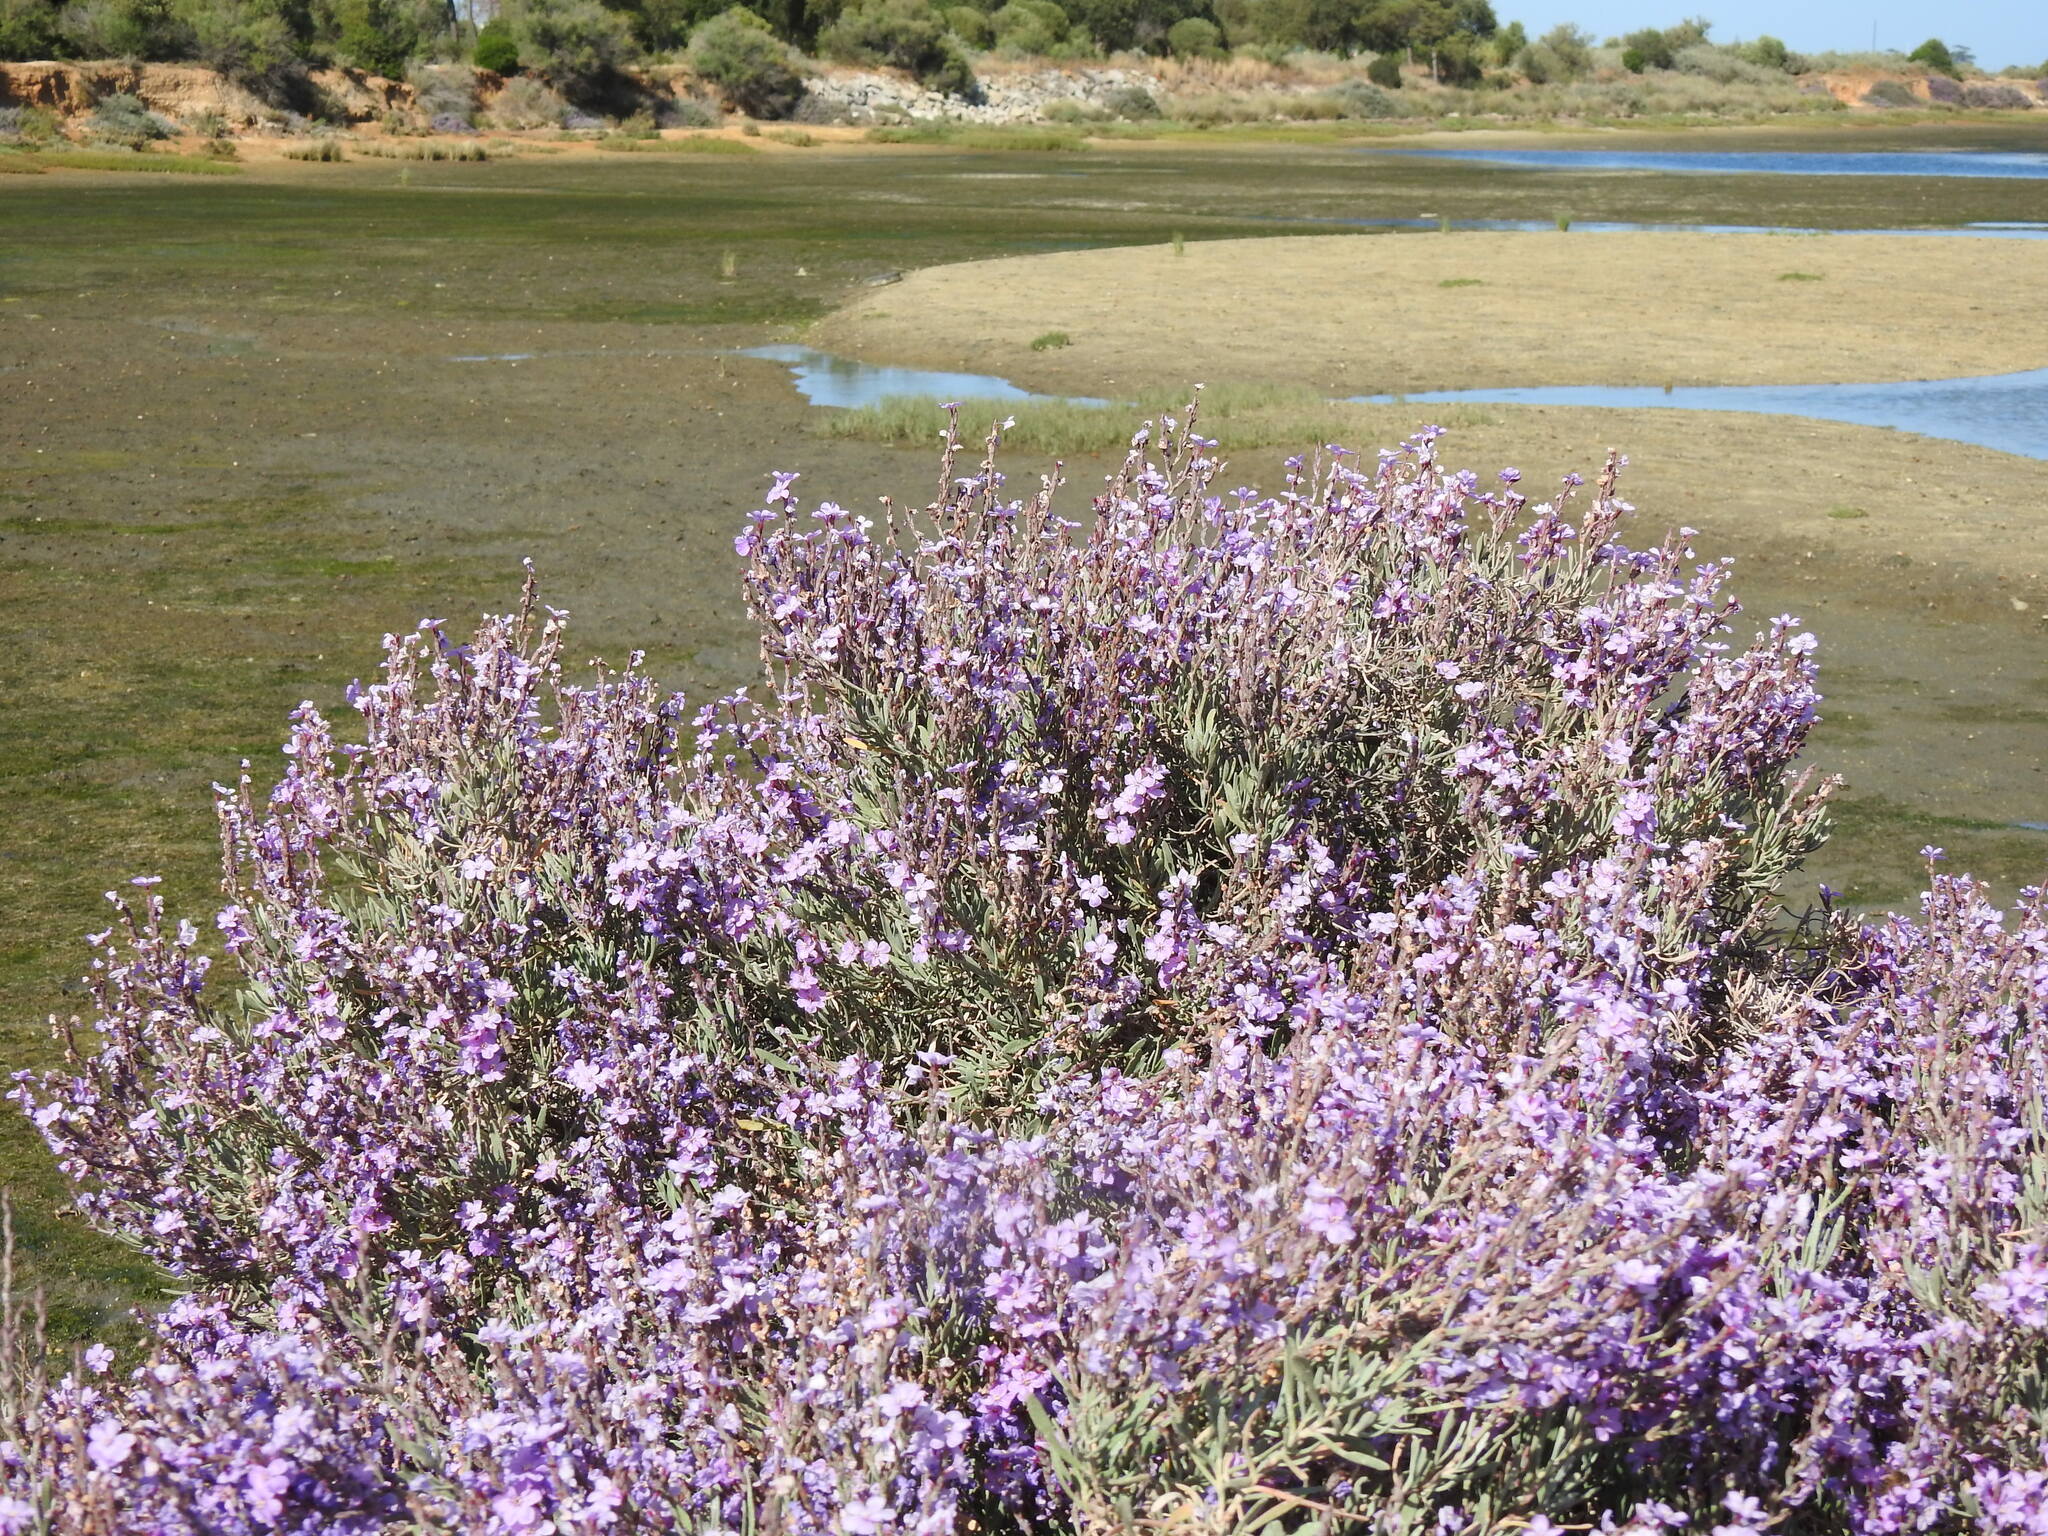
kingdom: Plantae
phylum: Tracheophyta
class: Magnoliopsida
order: Caryophyllales
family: Plumbaginaceae
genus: Limoniastrum
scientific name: Limoniastrum monopetalum
